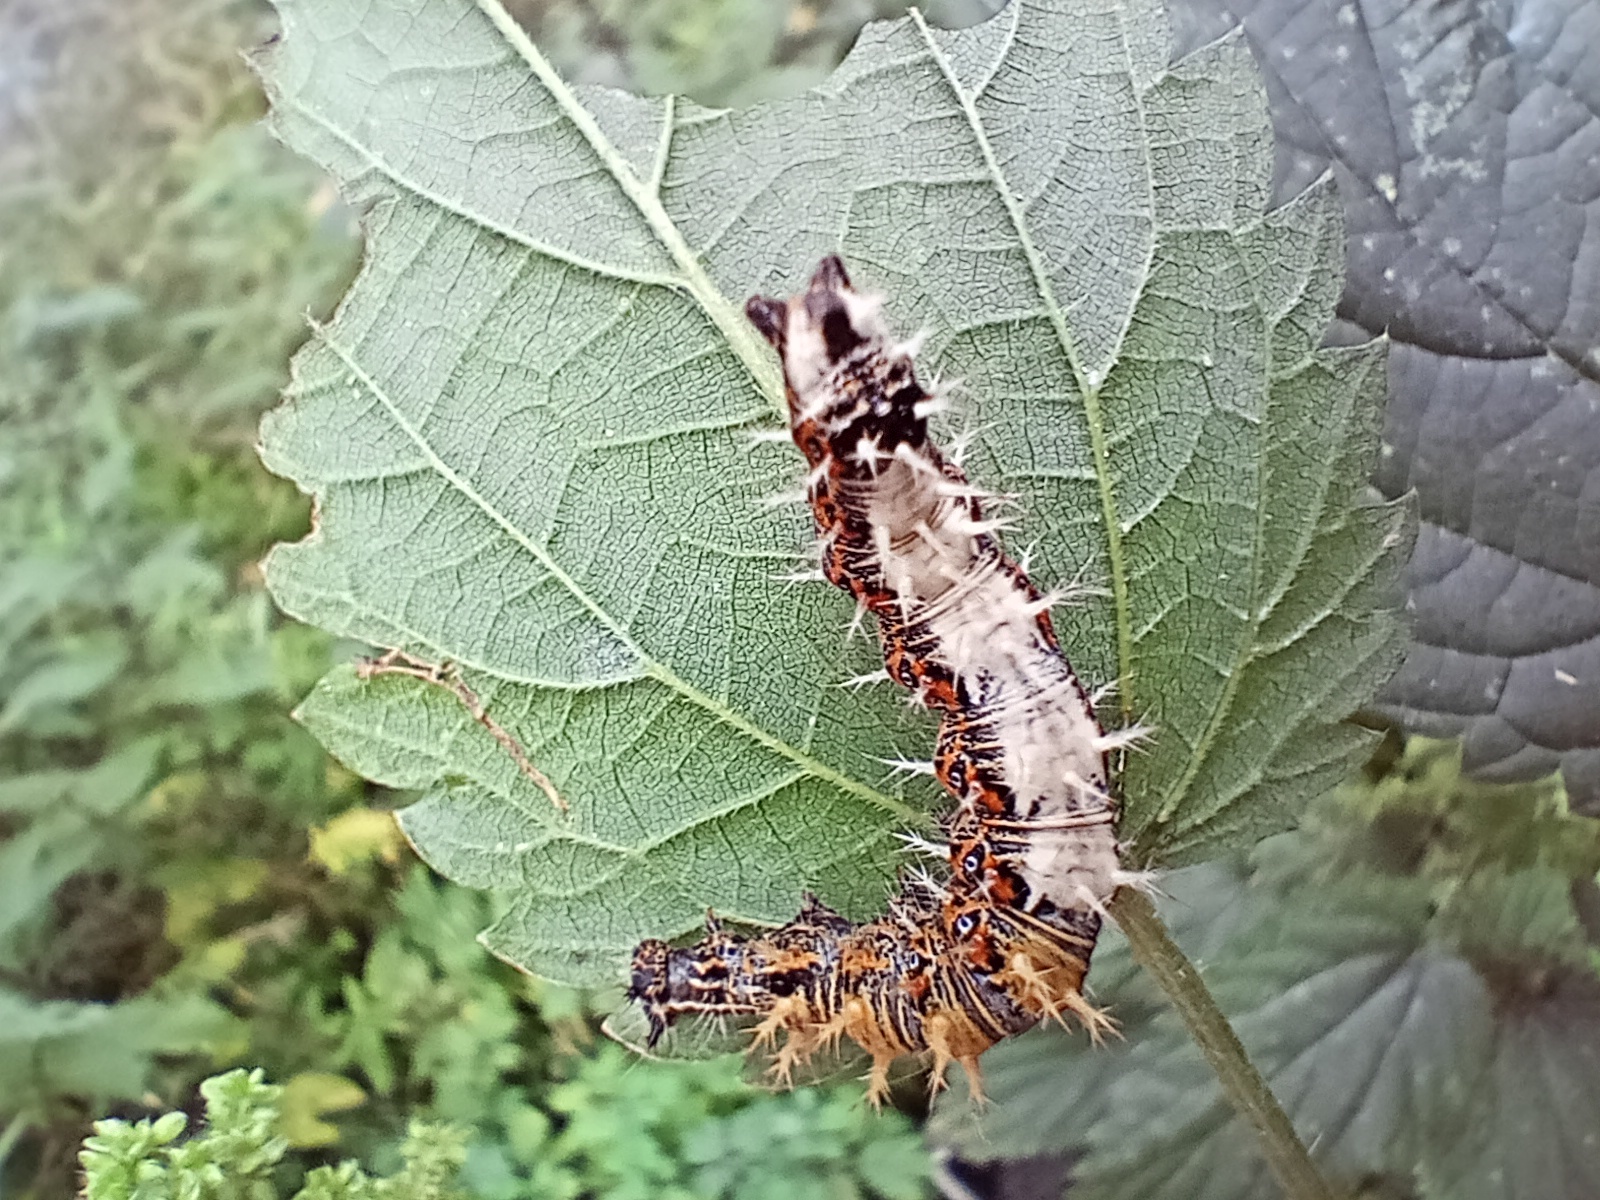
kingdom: Animalia
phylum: Arthropoda
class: Insecta
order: Lepidoptera
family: Nymphalidae
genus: Polygonia
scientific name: Polygonia c-album
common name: Comma
